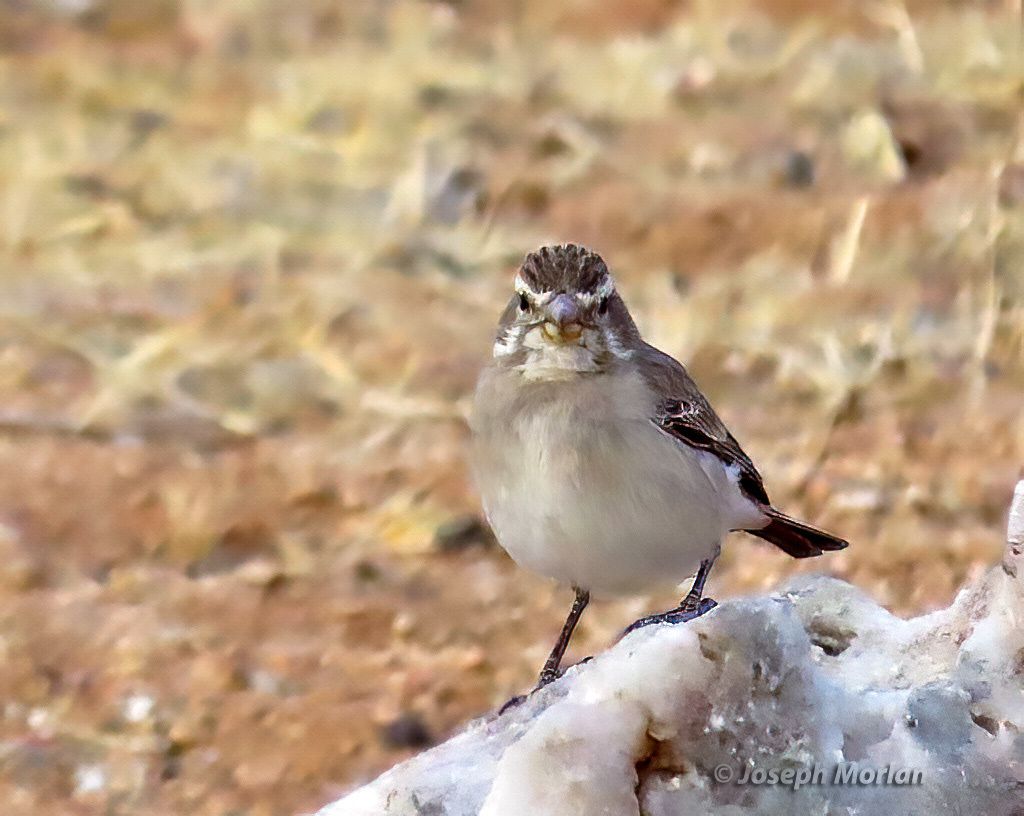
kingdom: Animalia
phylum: Chordata
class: Aves
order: Passeriformes
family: Fringillidae
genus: Crithagra
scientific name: Crithagra albogularis
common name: White-throated canary
